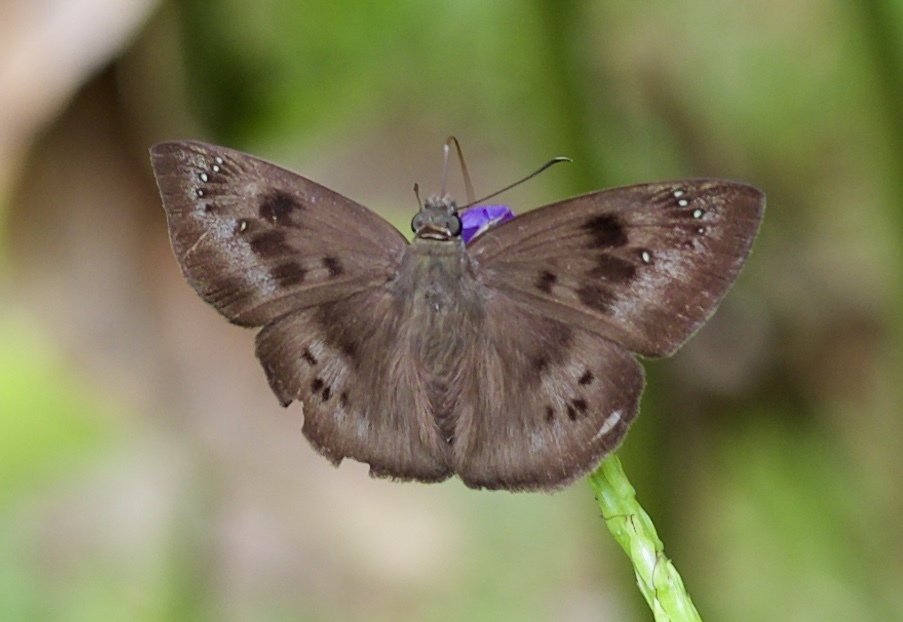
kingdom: Animalia
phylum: Arthropoda
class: Insecta
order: Lepidoptera
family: Hesperiidae
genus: Tagiades
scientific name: Tagiades japetus
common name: Pied flat
